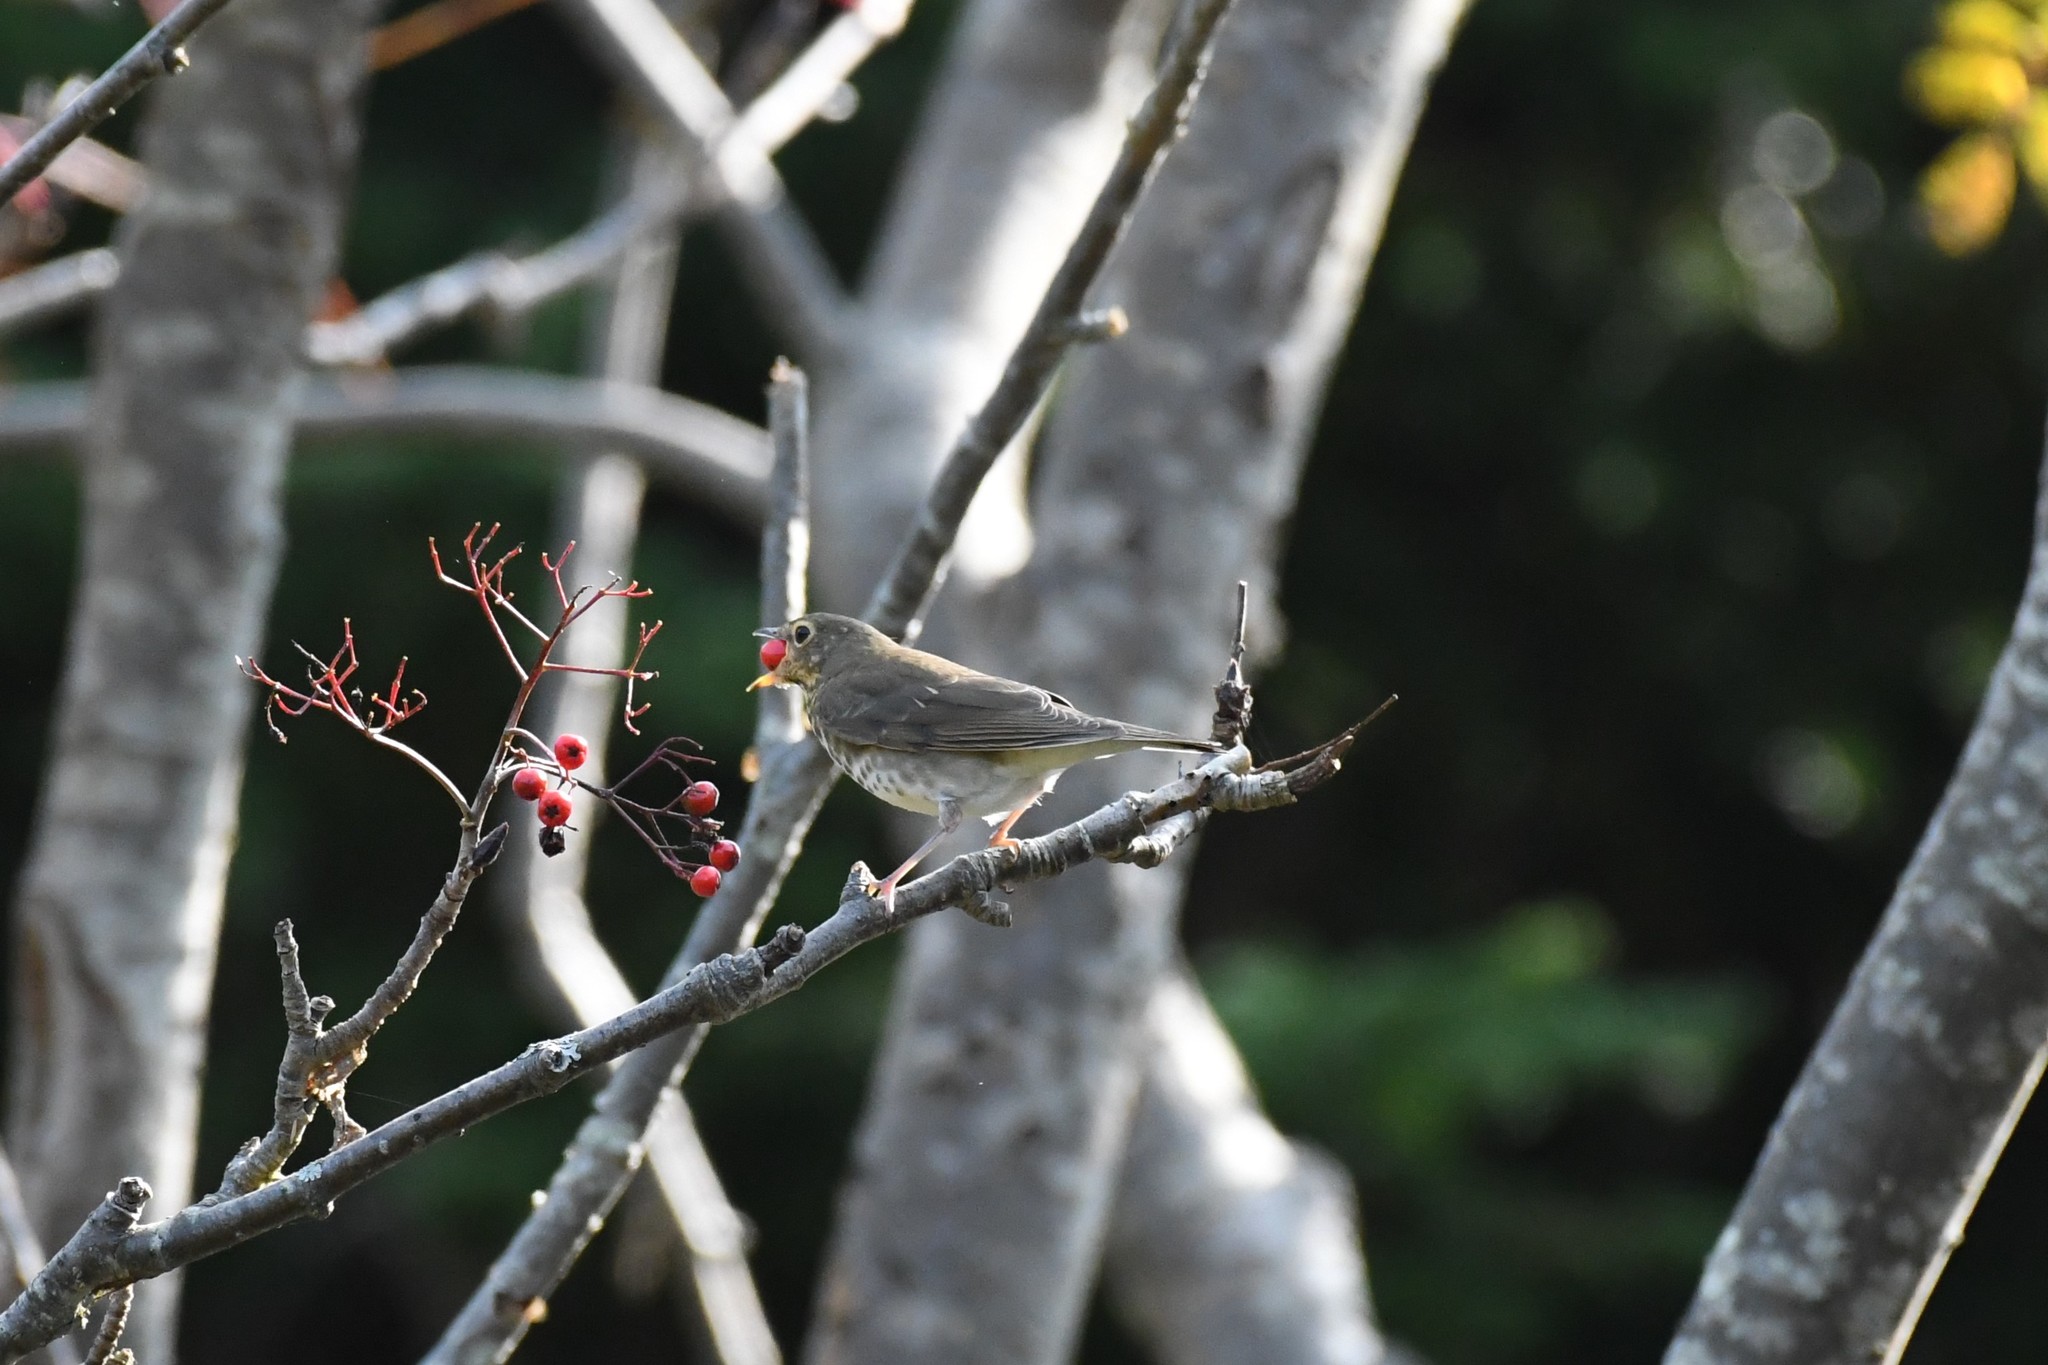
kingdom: Animalia
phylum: Chordata
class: Aves
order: Passeriformes
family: Turdidae
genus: Catharus
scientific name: Catharus ustulatus
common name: Swainson's thrush
